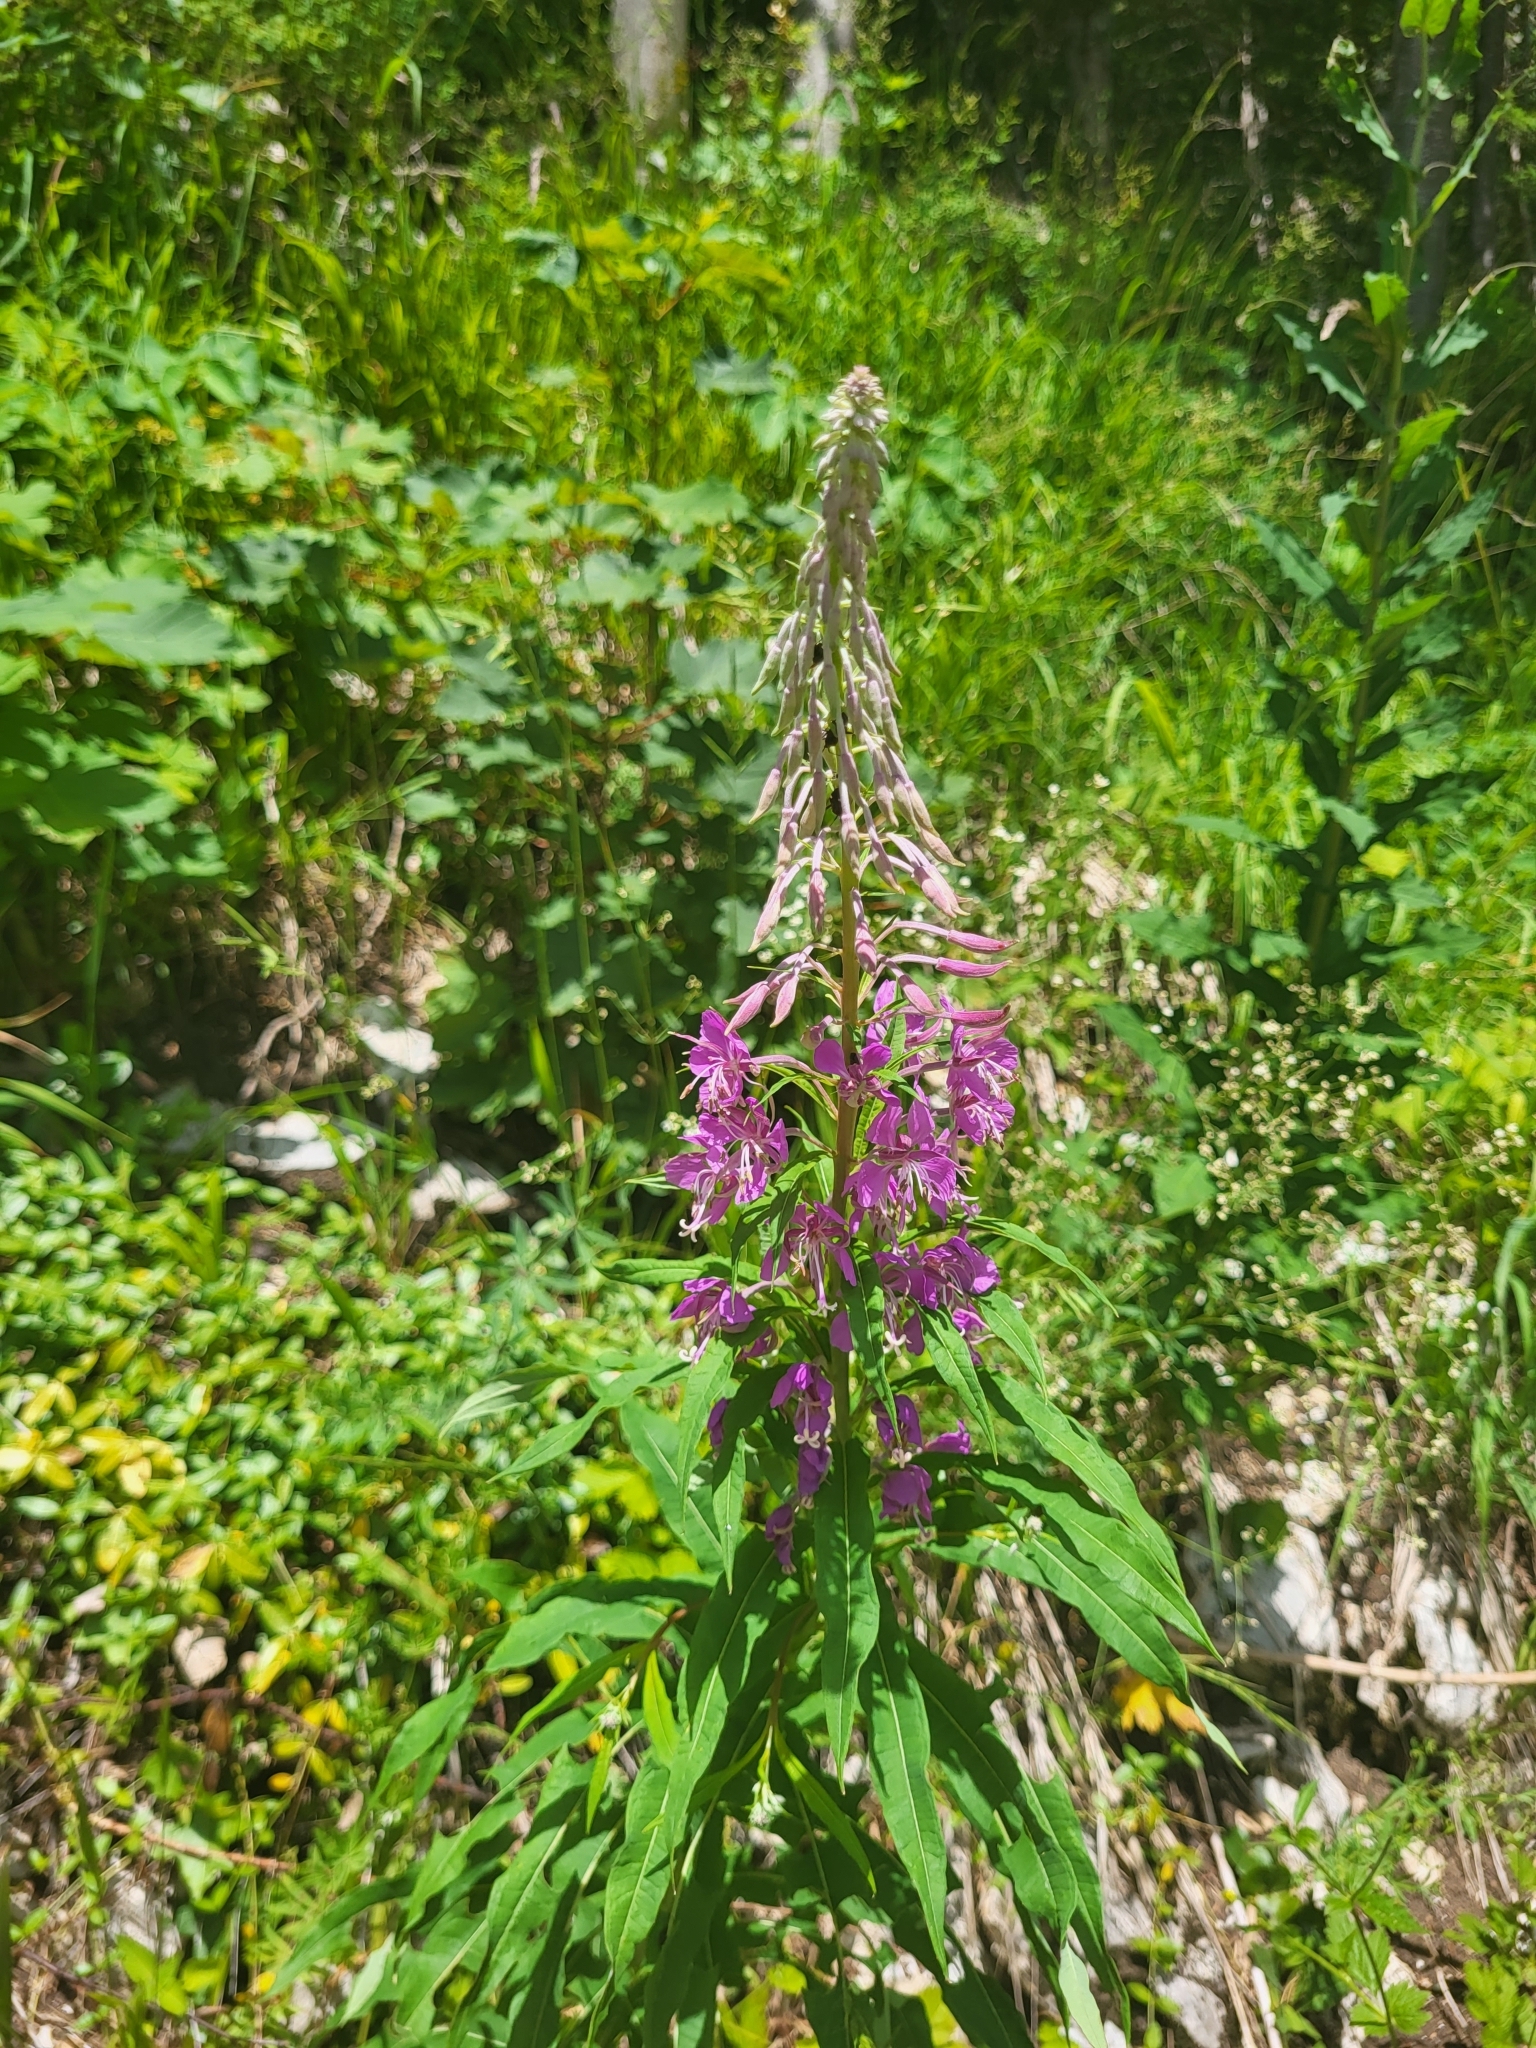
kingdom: Plantae
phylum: Tracheophyta
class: Magnoliopsida
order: Myrtales
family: Onagraceae
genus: Chamaenerion
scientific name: Chamaenerion angustifolium
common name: Fireweed
